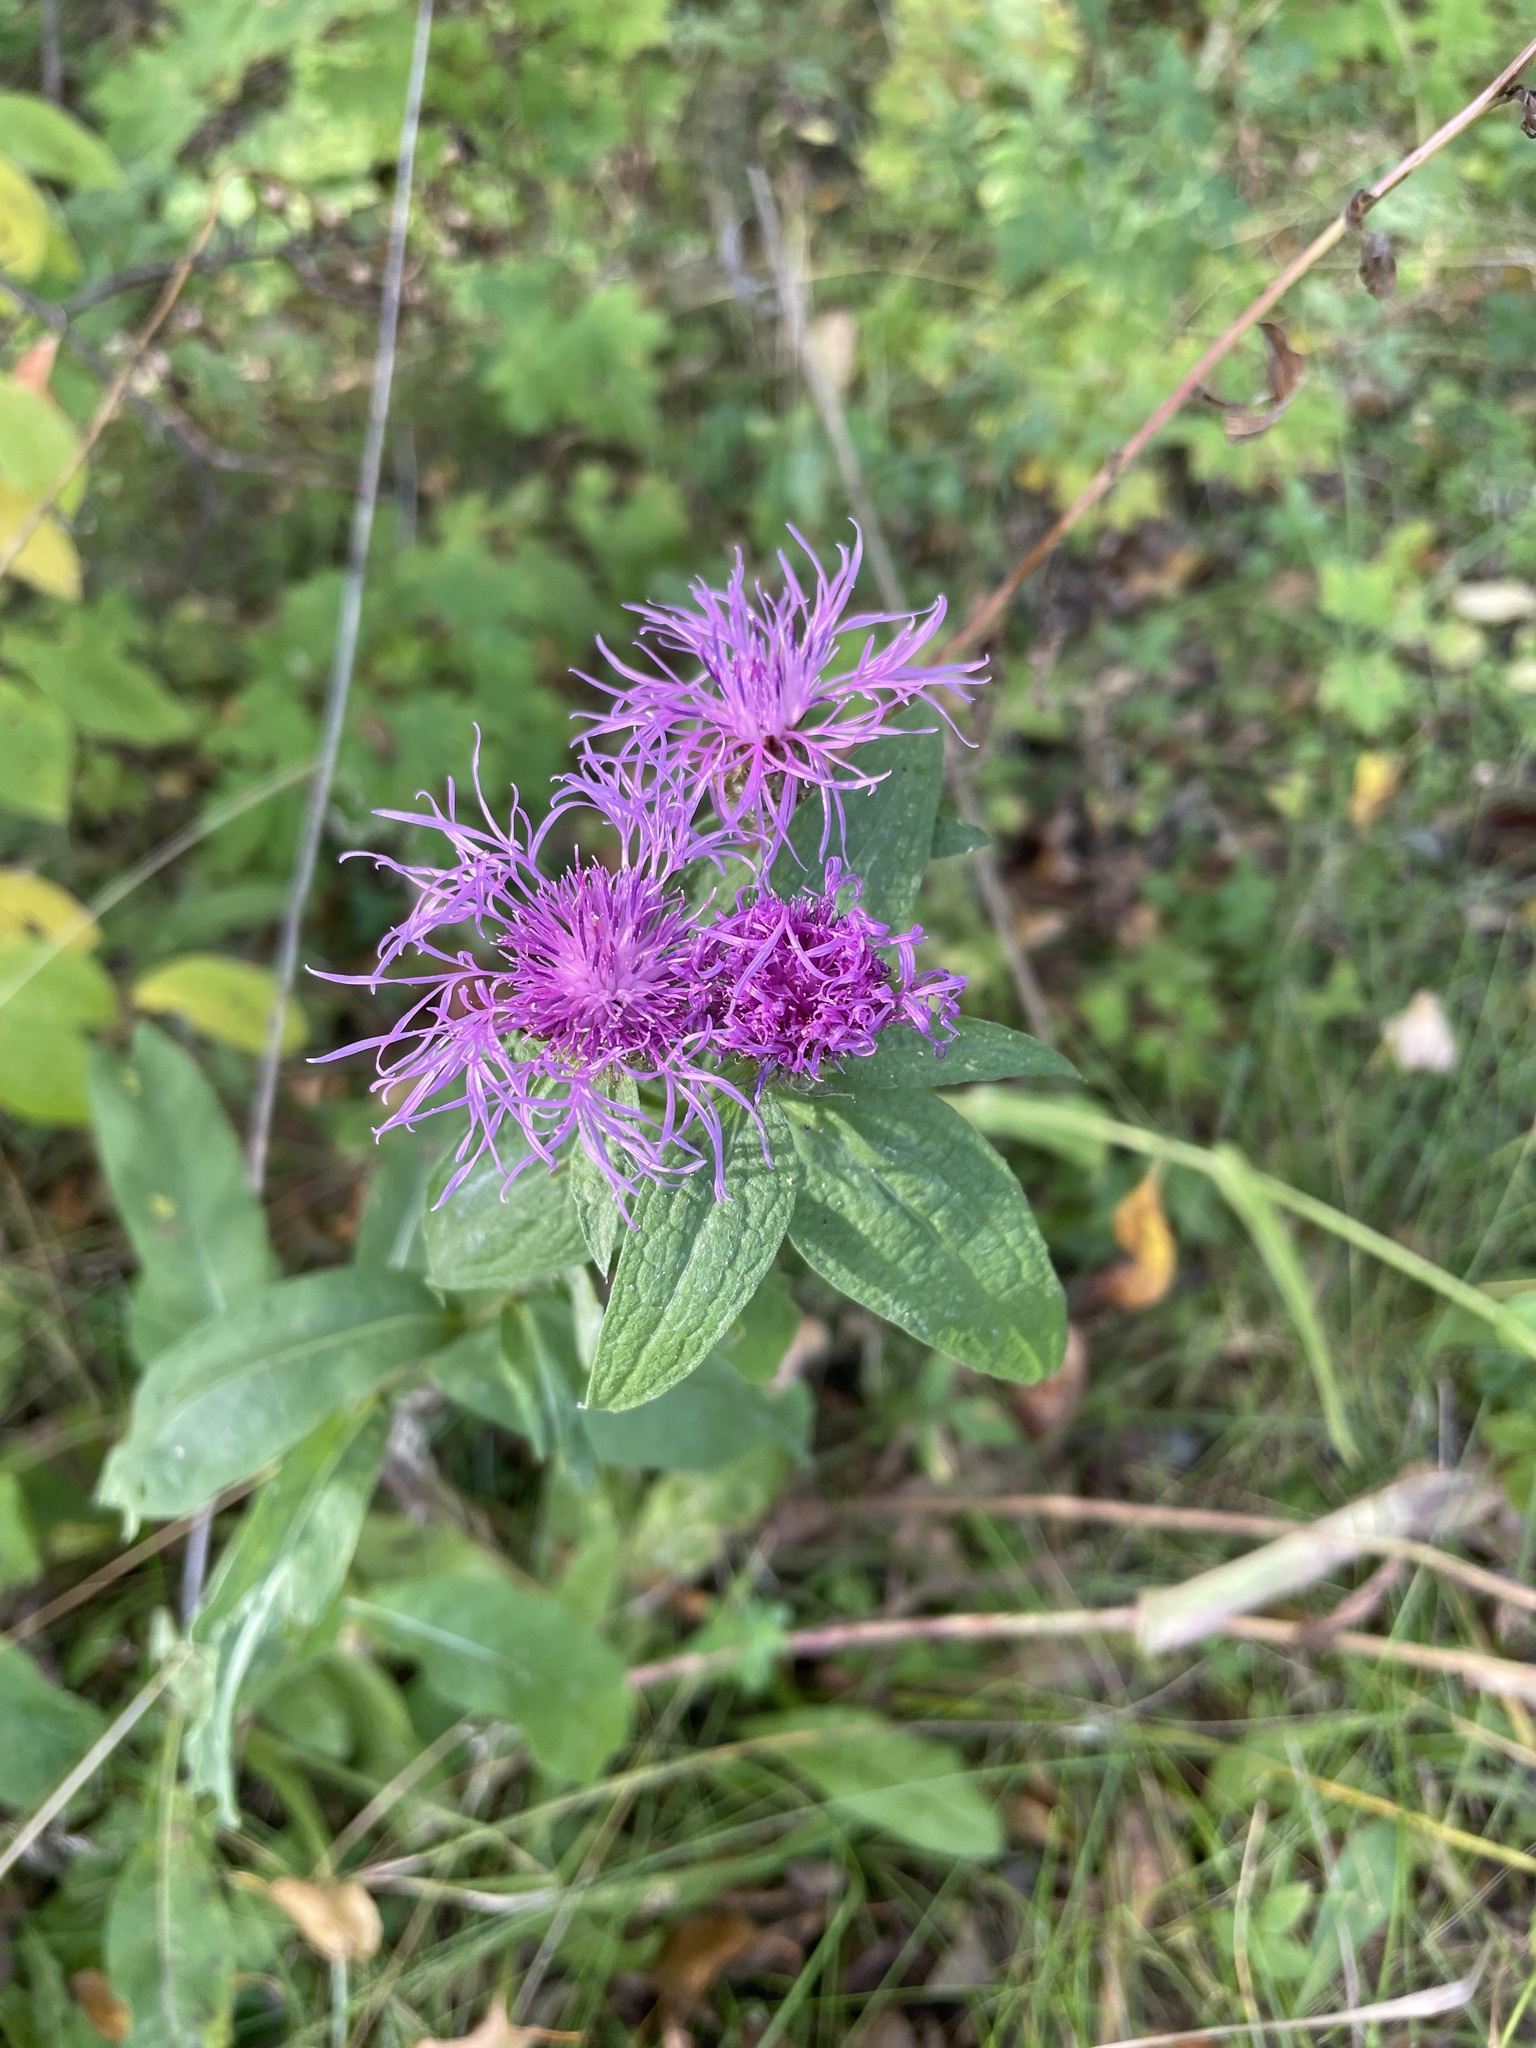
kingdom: Plantae
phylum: Tracheophyta
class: Magnoliopsida
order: Asterales
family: Asteraceae
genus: Centaurea
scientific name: Centaurea pseudophrygia
